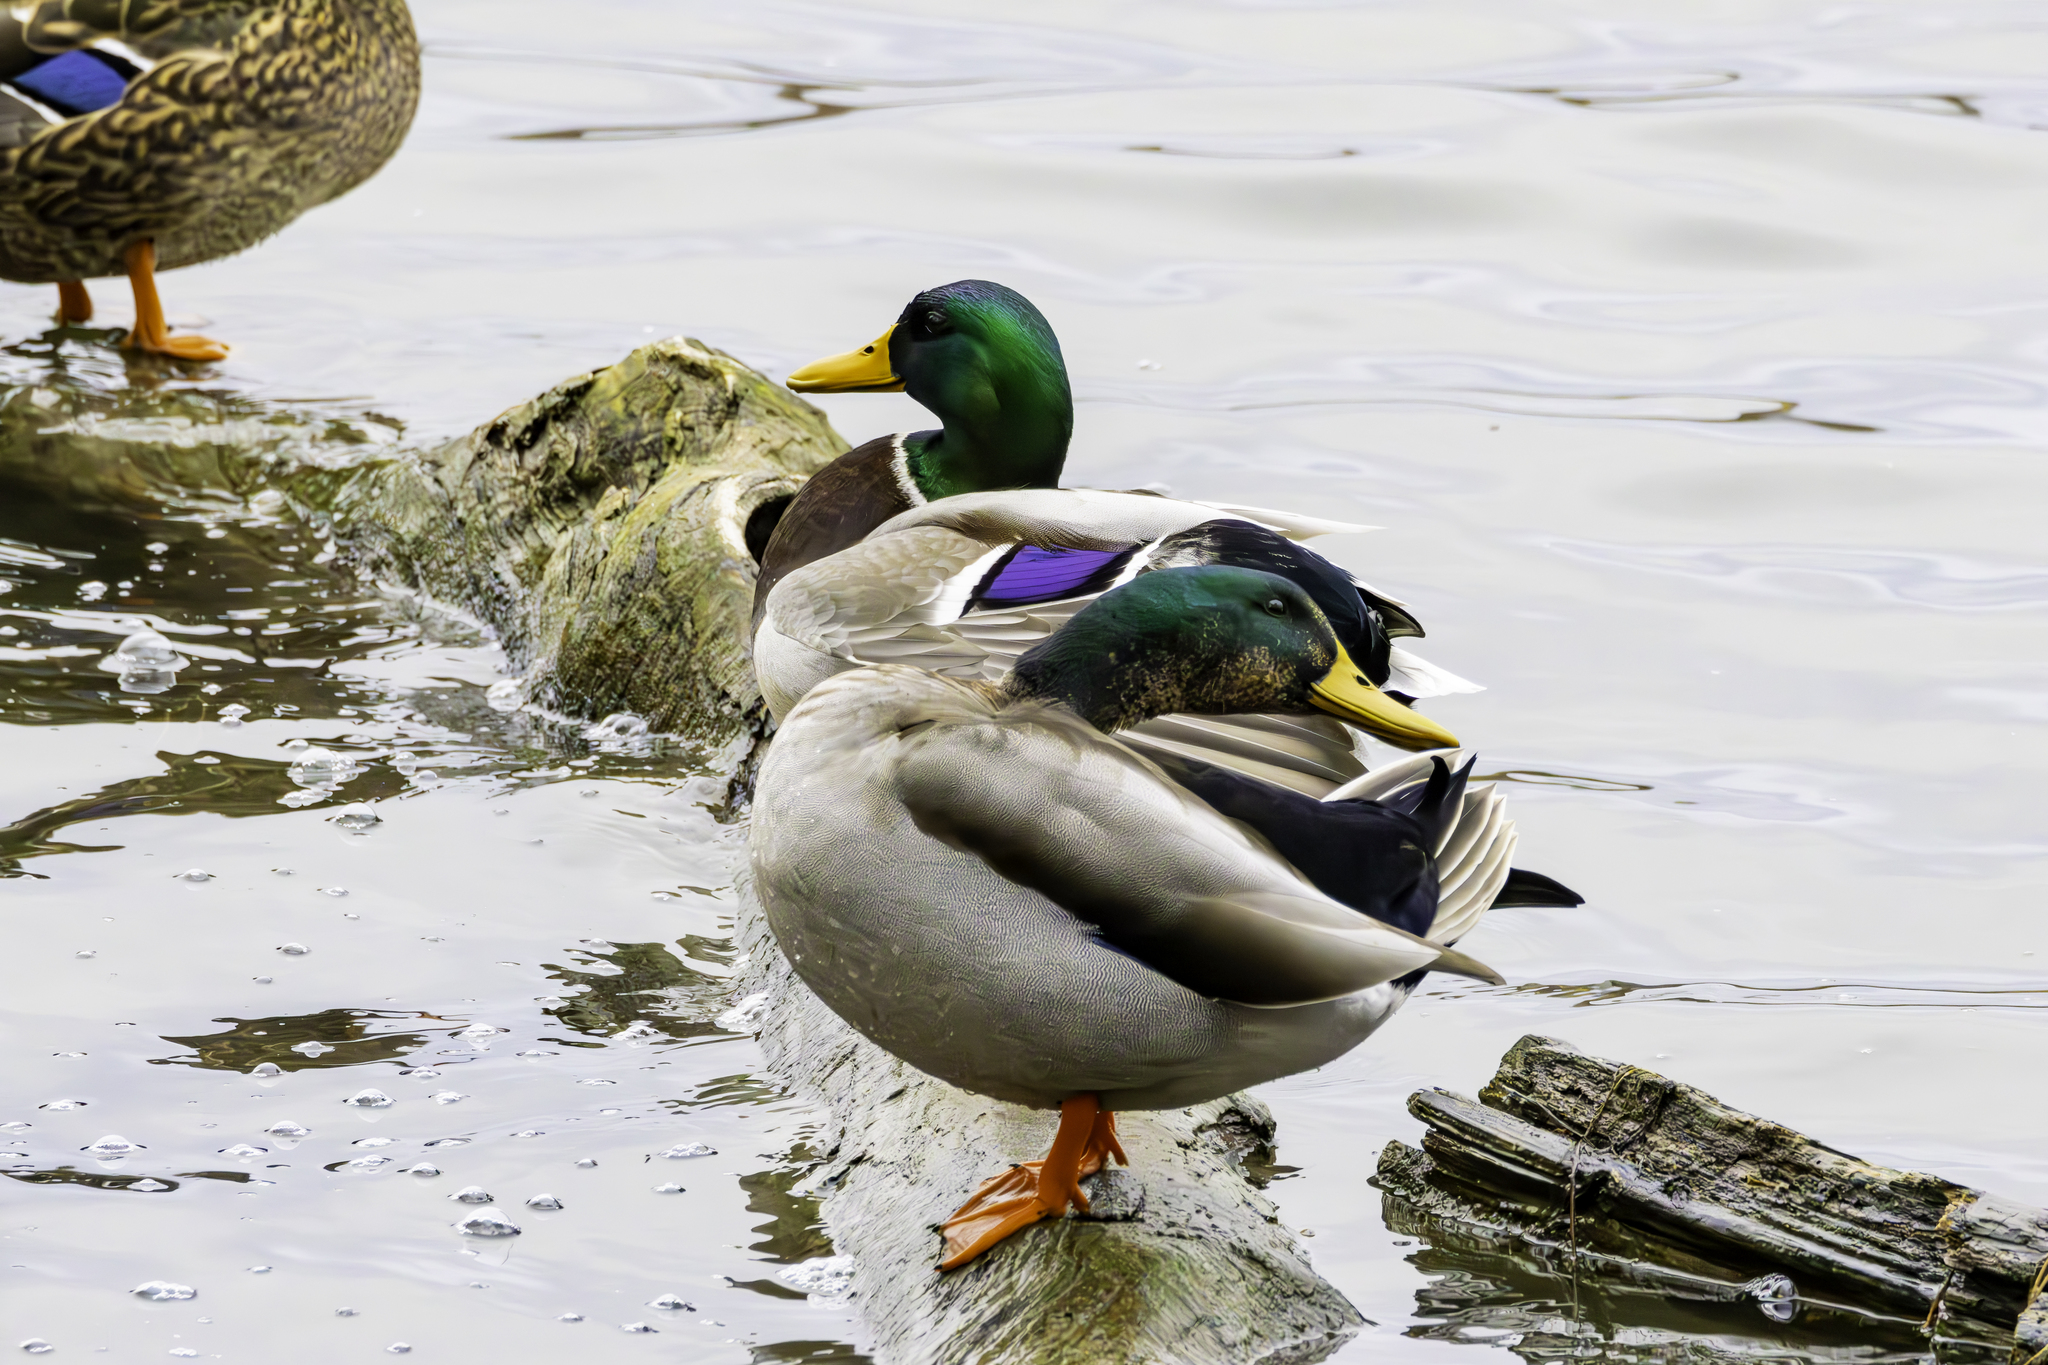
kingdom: Animalia
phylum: Chordata
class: Aves
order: Anseriformes
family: Anatidae
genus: Anas
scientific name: Anas platyrhynchos
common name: Mallard
